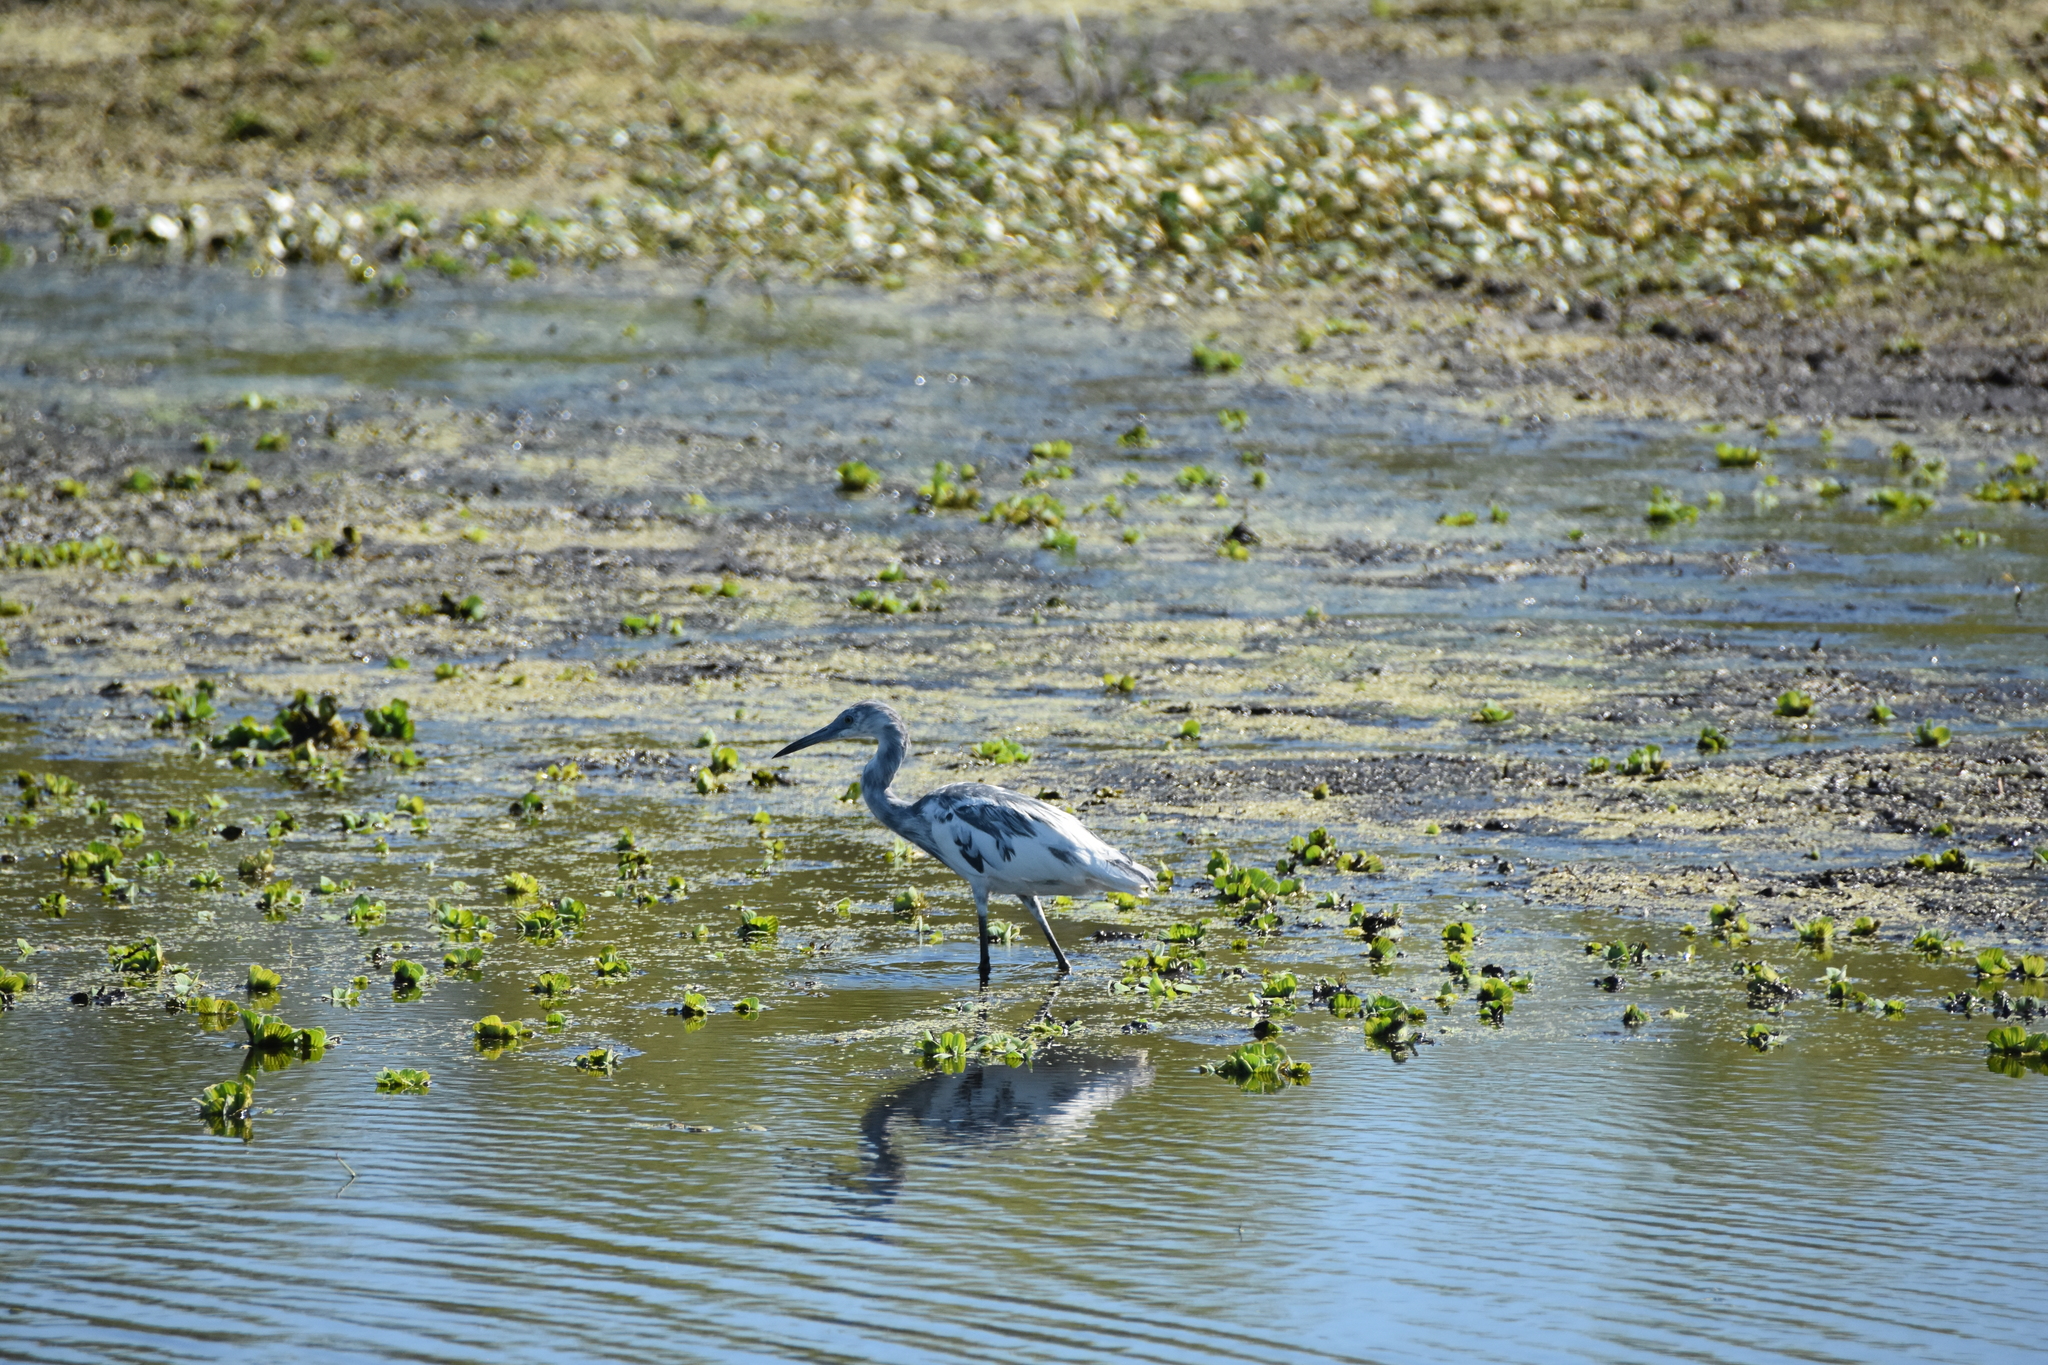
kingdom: Animalia
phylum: Chordata
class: Aves
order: Pelecaniformes
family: Ardeidae
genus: Egretta
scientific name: Egretta caerulea
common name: Little blue heron
